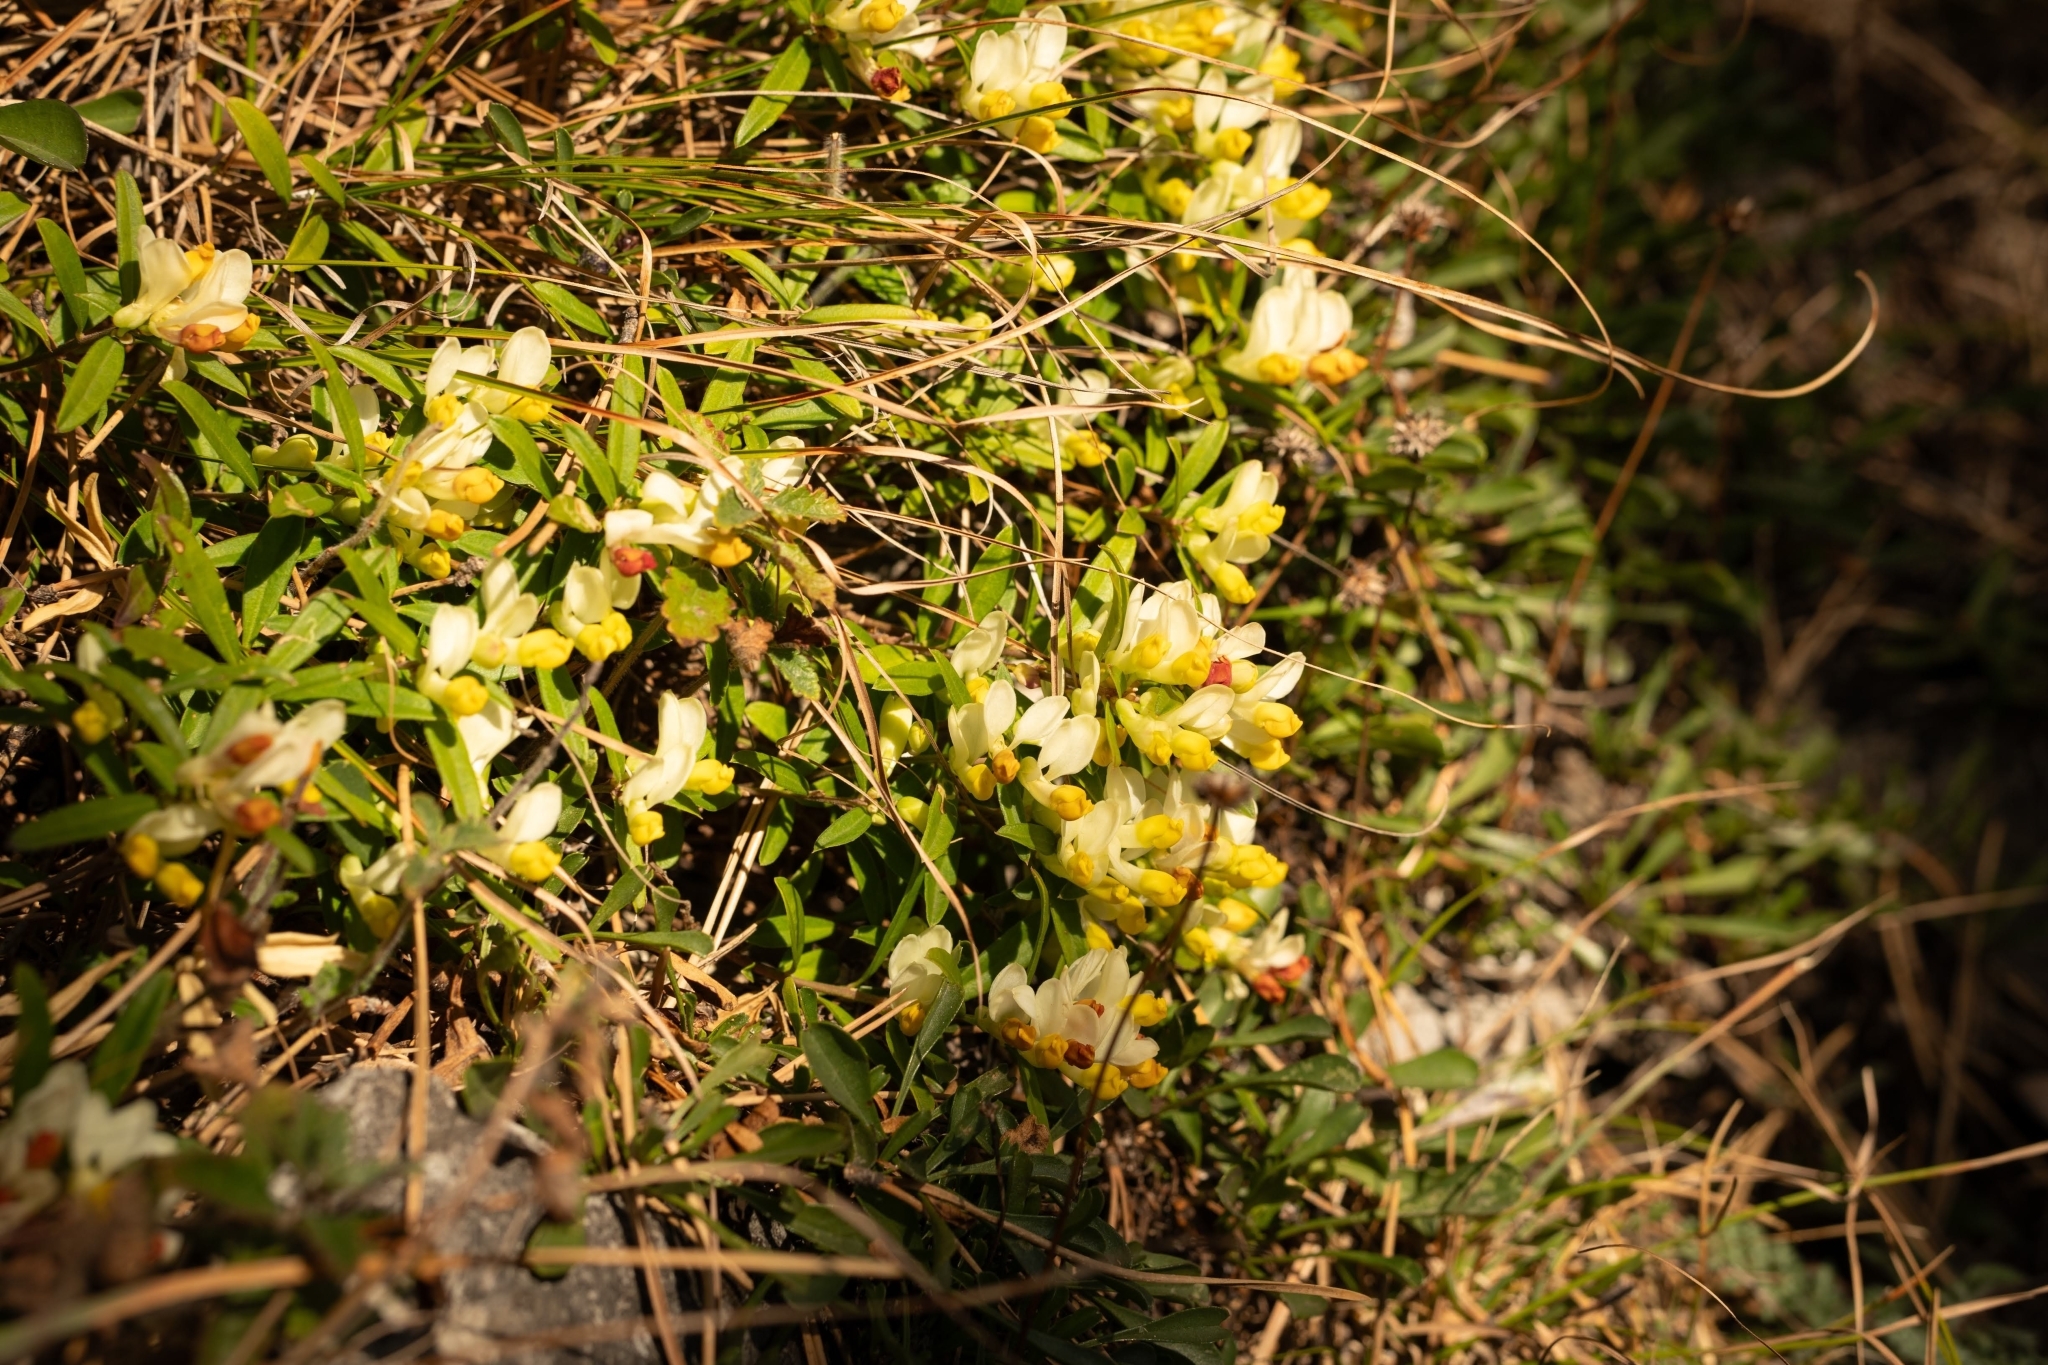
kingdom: Plantae
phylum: Tracheophyta
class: Magnoliopsida
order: Fabales
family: Polygalaceae
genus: Polygaloides
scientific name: Polygaloides chamaebuxus
